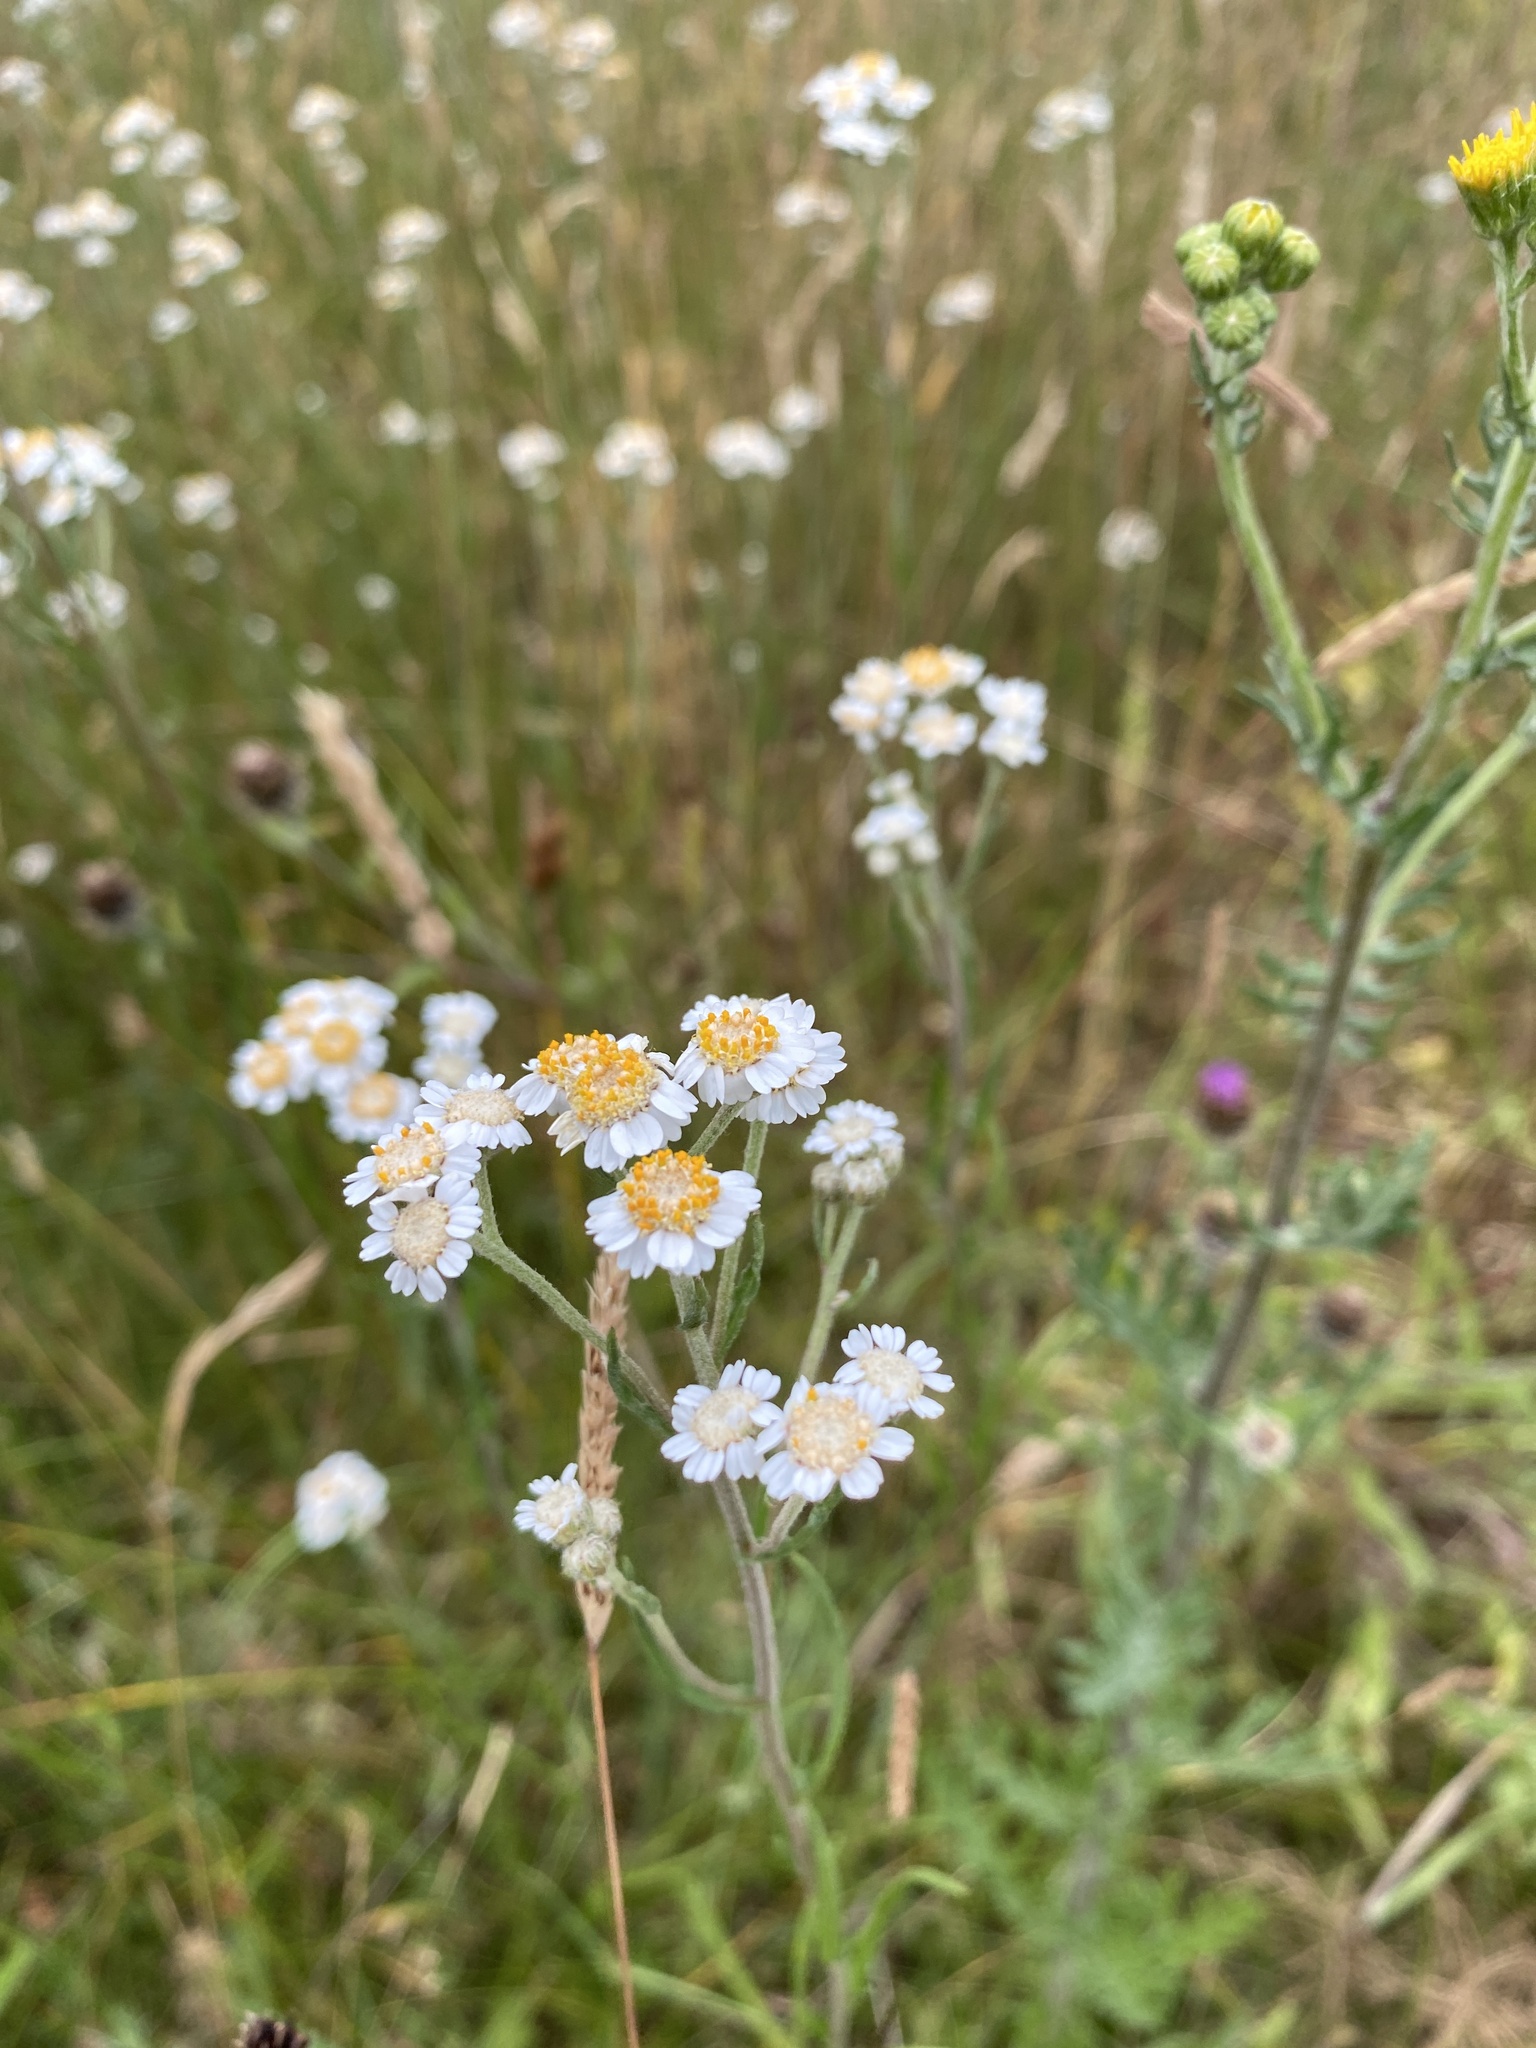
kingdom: Plantae
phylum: Tracheophyta
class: Magnoliopsida
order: Asterales
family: Asteraceae
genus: Achillea
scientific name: Achillea ptarmica
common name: Sneezeweed
